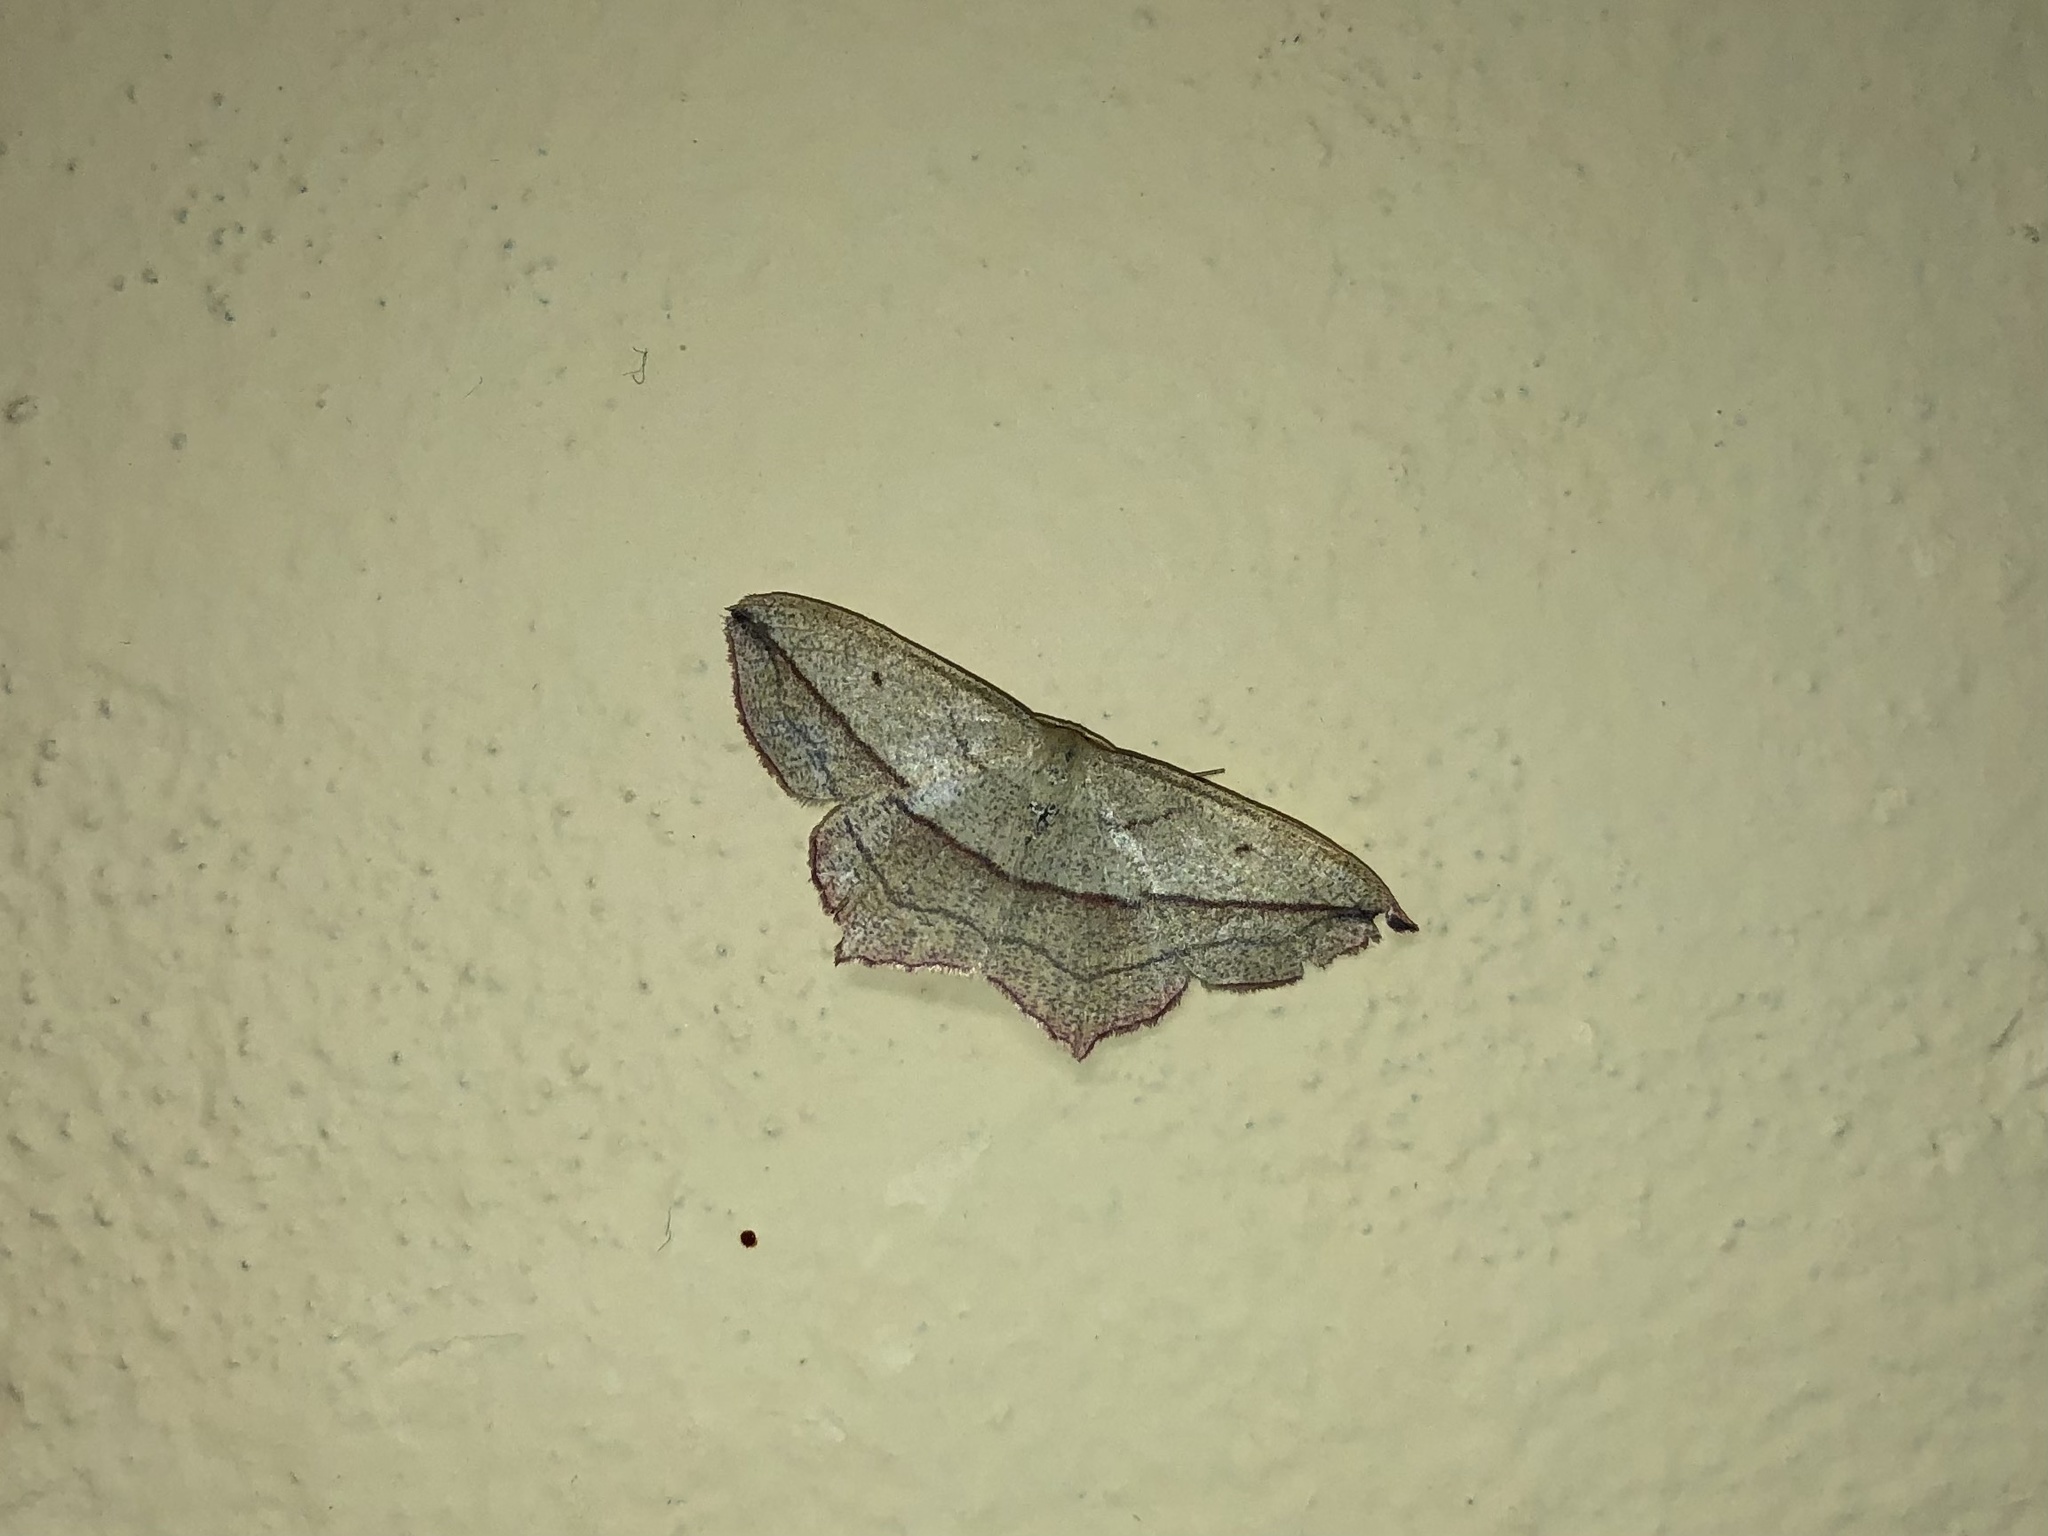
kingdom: Animalia
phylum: Arthropoda
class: Insecta
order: Lepidoptera
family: Geometridae
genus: Timandra
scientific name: Timandra comae
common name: Blood-vein
